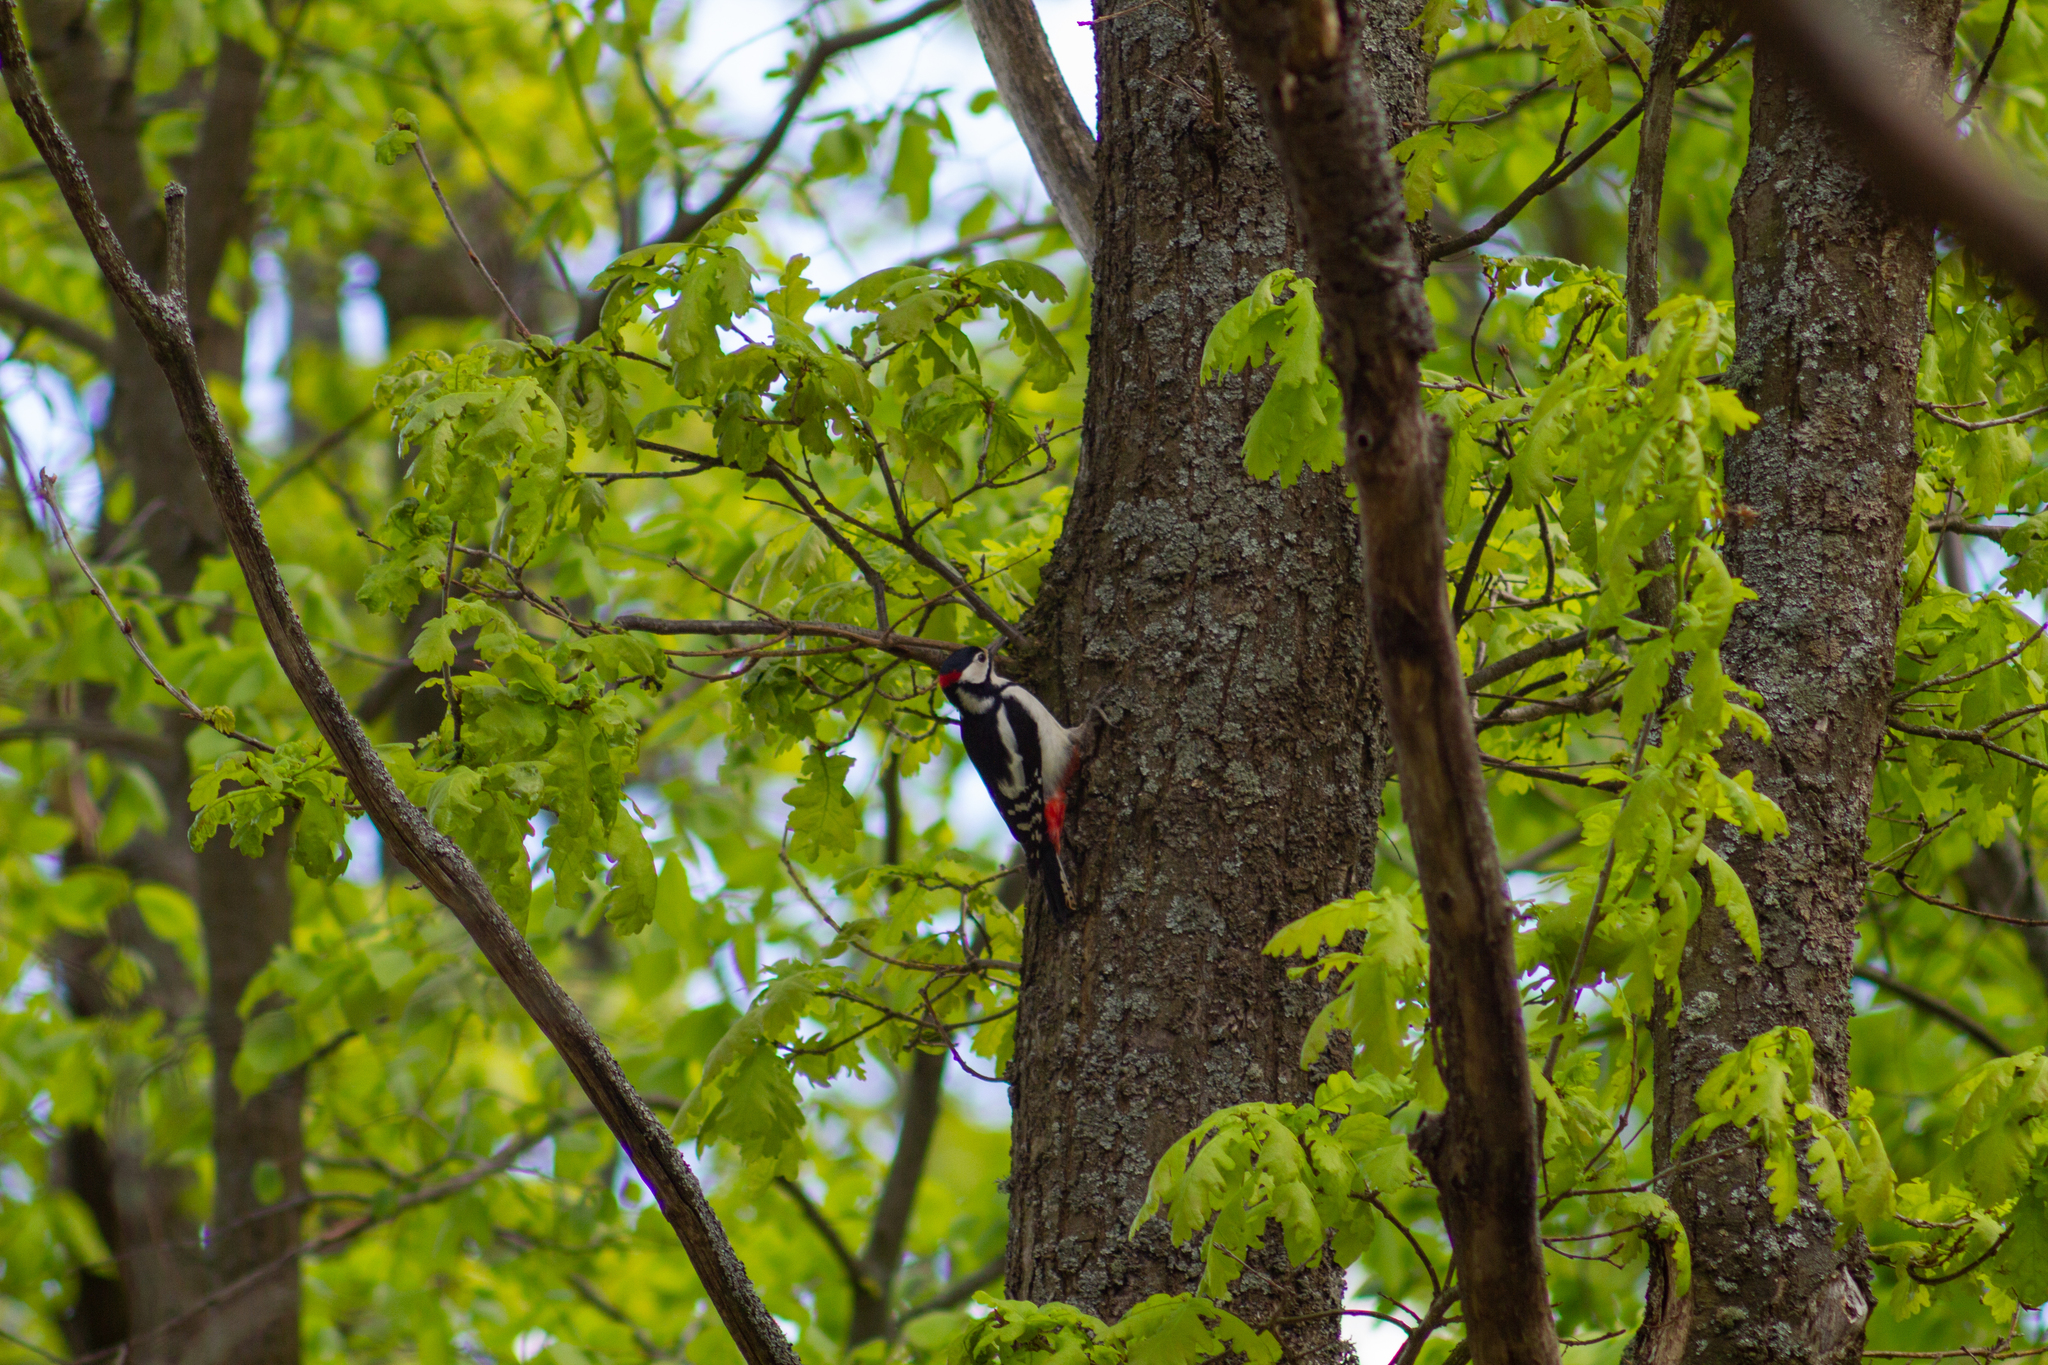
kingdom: Animalia
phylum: Chordata
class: Aves
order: Piciformes
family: Picidae
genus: Dendrocopos
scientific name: Dendrocopos major
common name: Great spotted woodpecker
